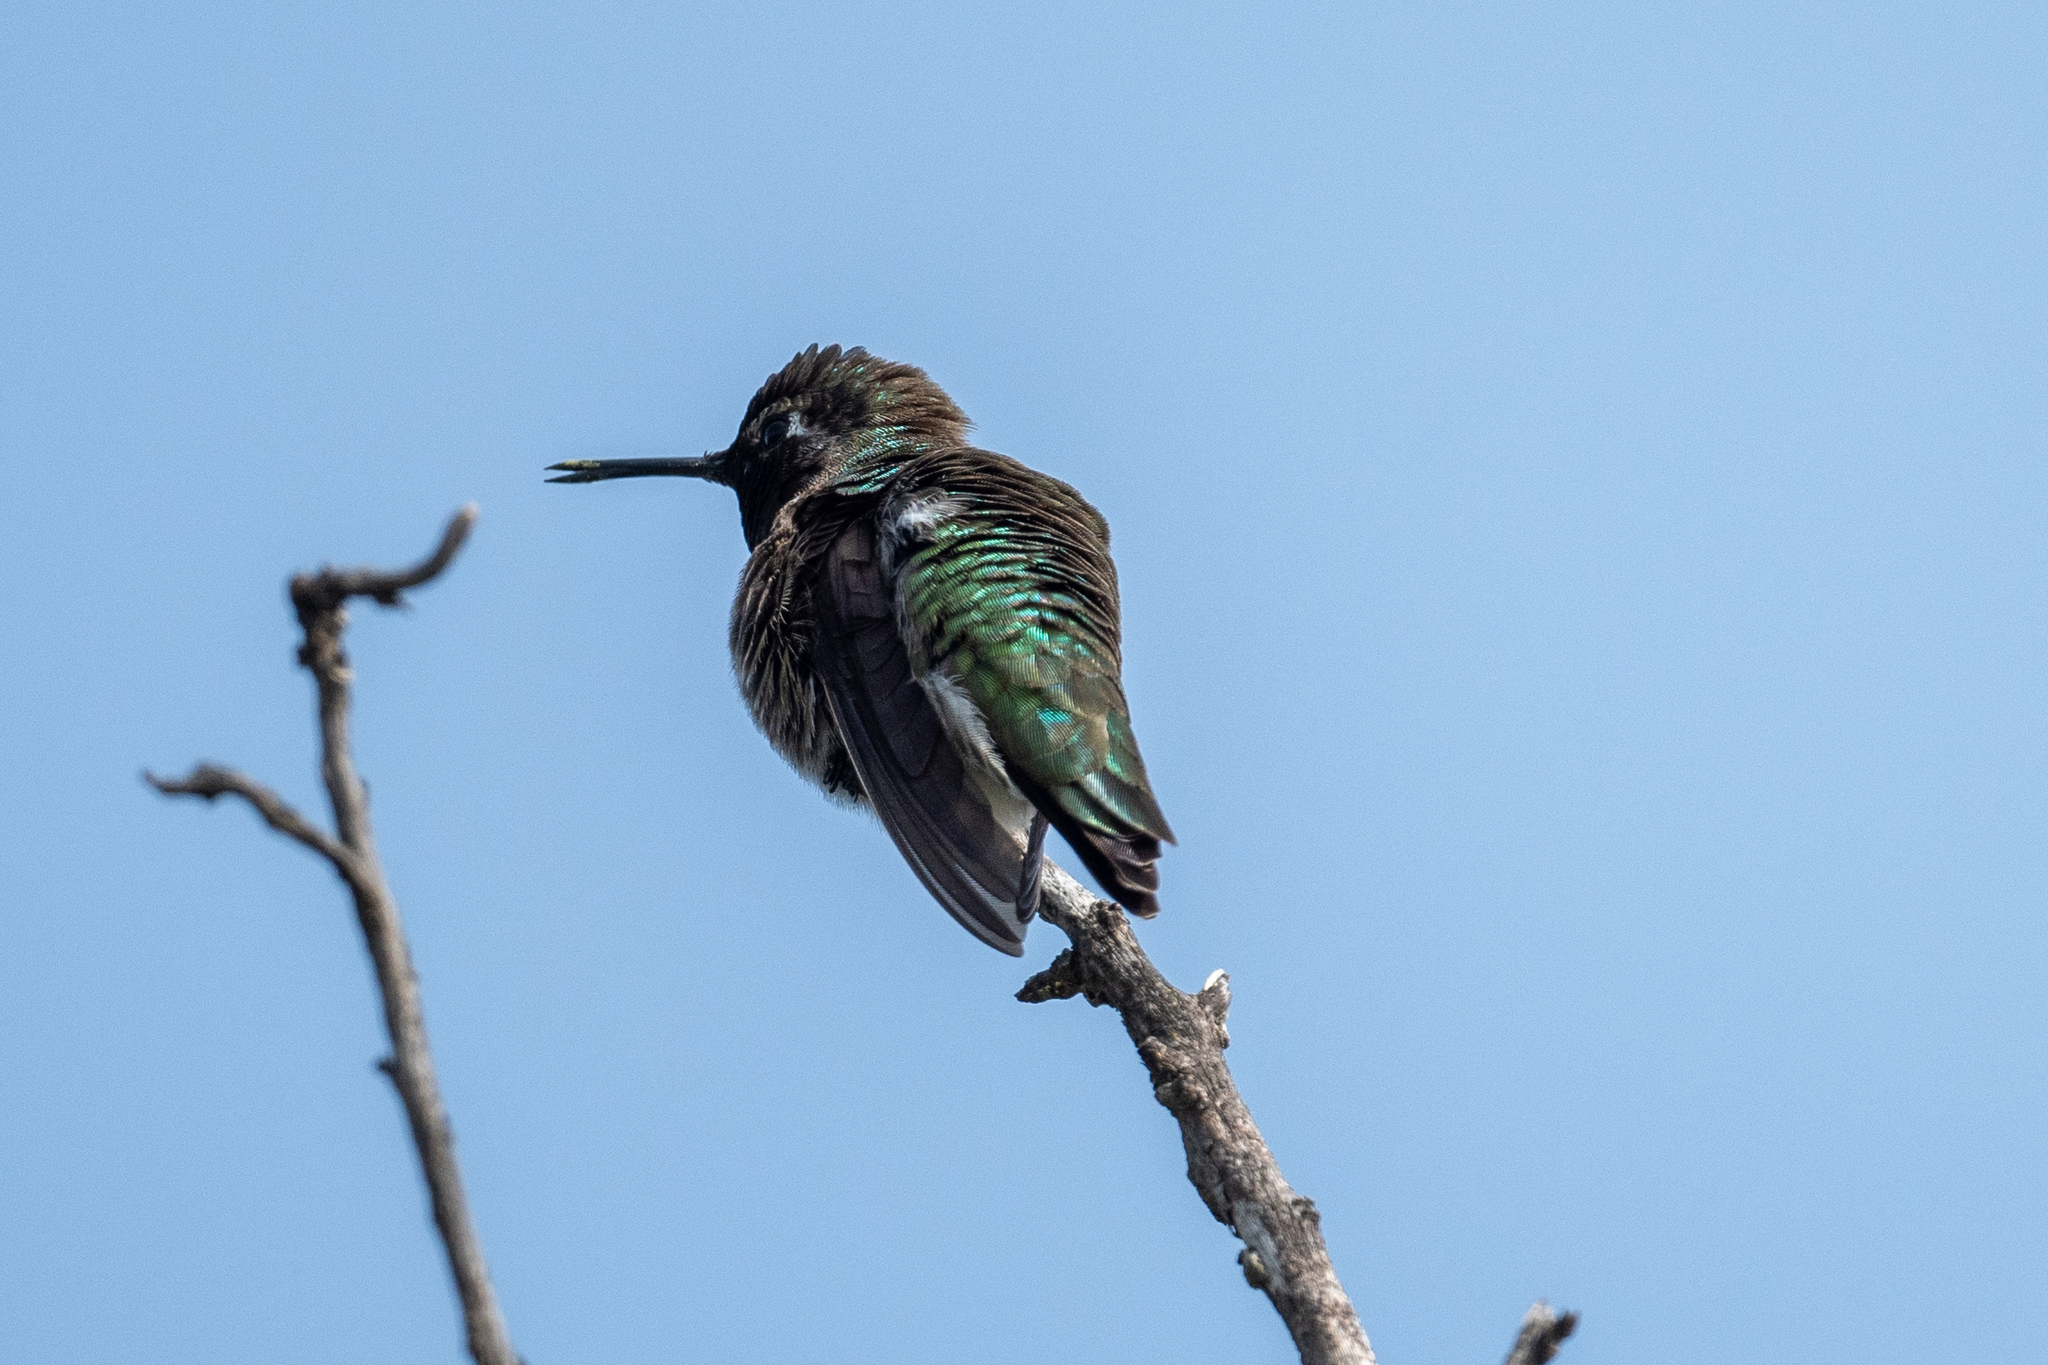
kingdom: Animalia
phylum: Chordata
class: Aves
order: Apodiformes
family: Trochilidae
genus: Calypte
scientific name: Calypte anna
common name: Anna's hummingbird
